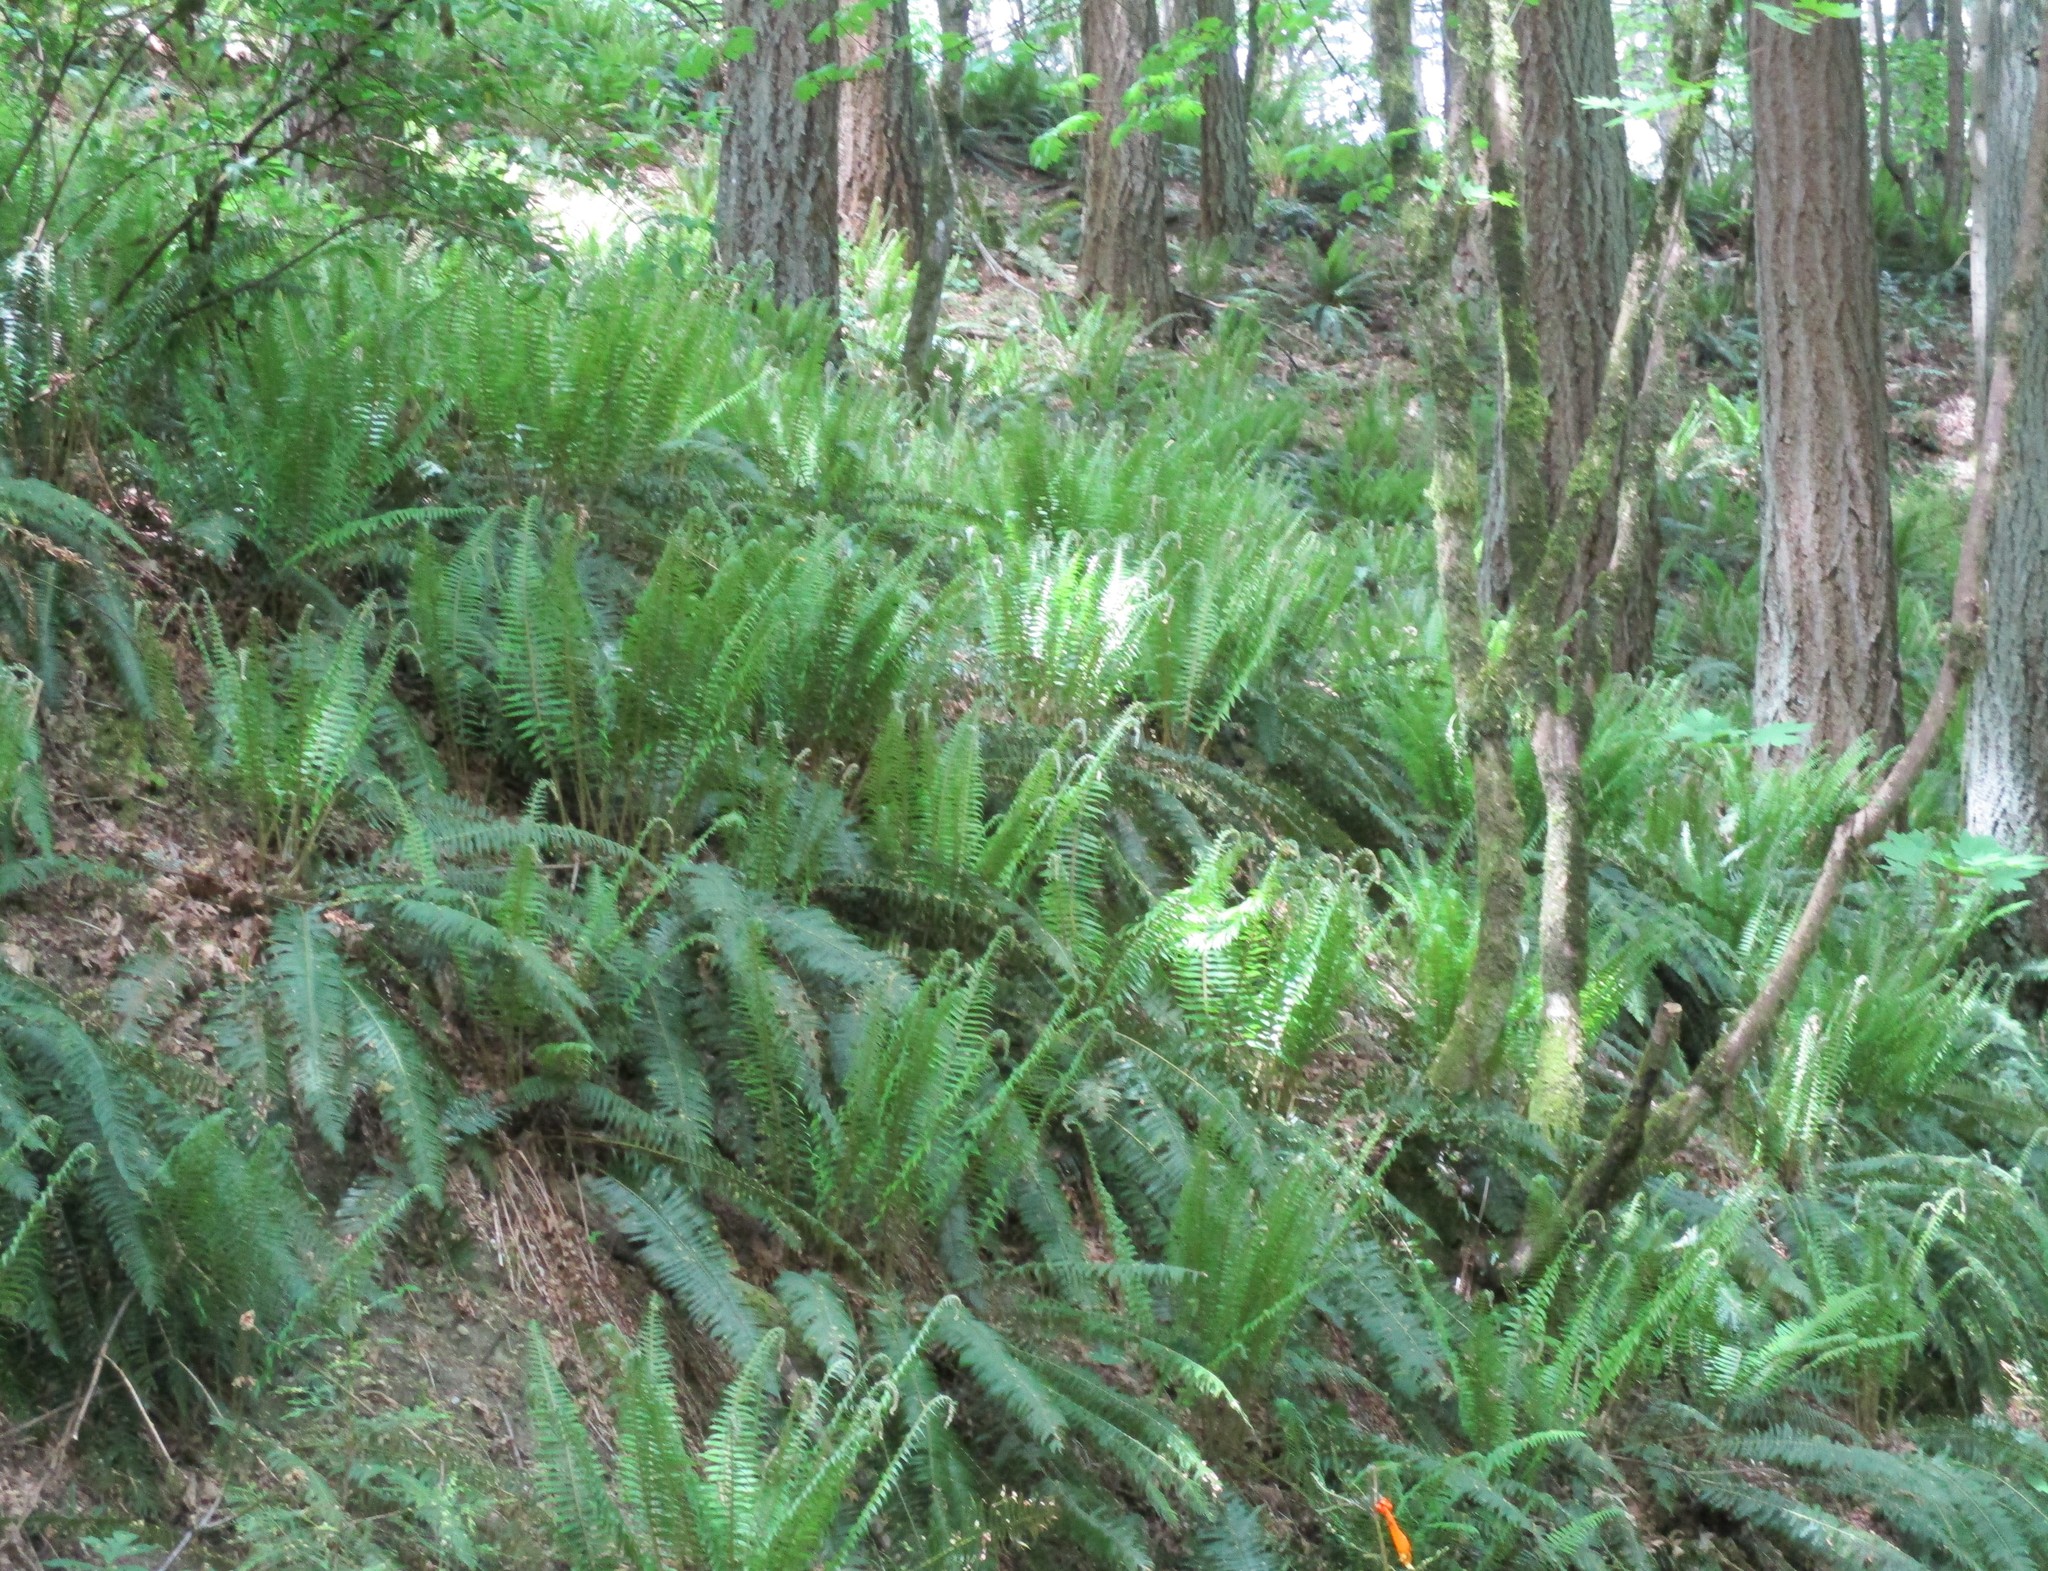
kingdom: Plantae
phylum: Tracheophyta
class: Polypodiopsida
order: Polypodiales
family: Dryopteridaceae
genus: Polystichum
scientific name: Polystichum munitum
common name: Western sword-fern
